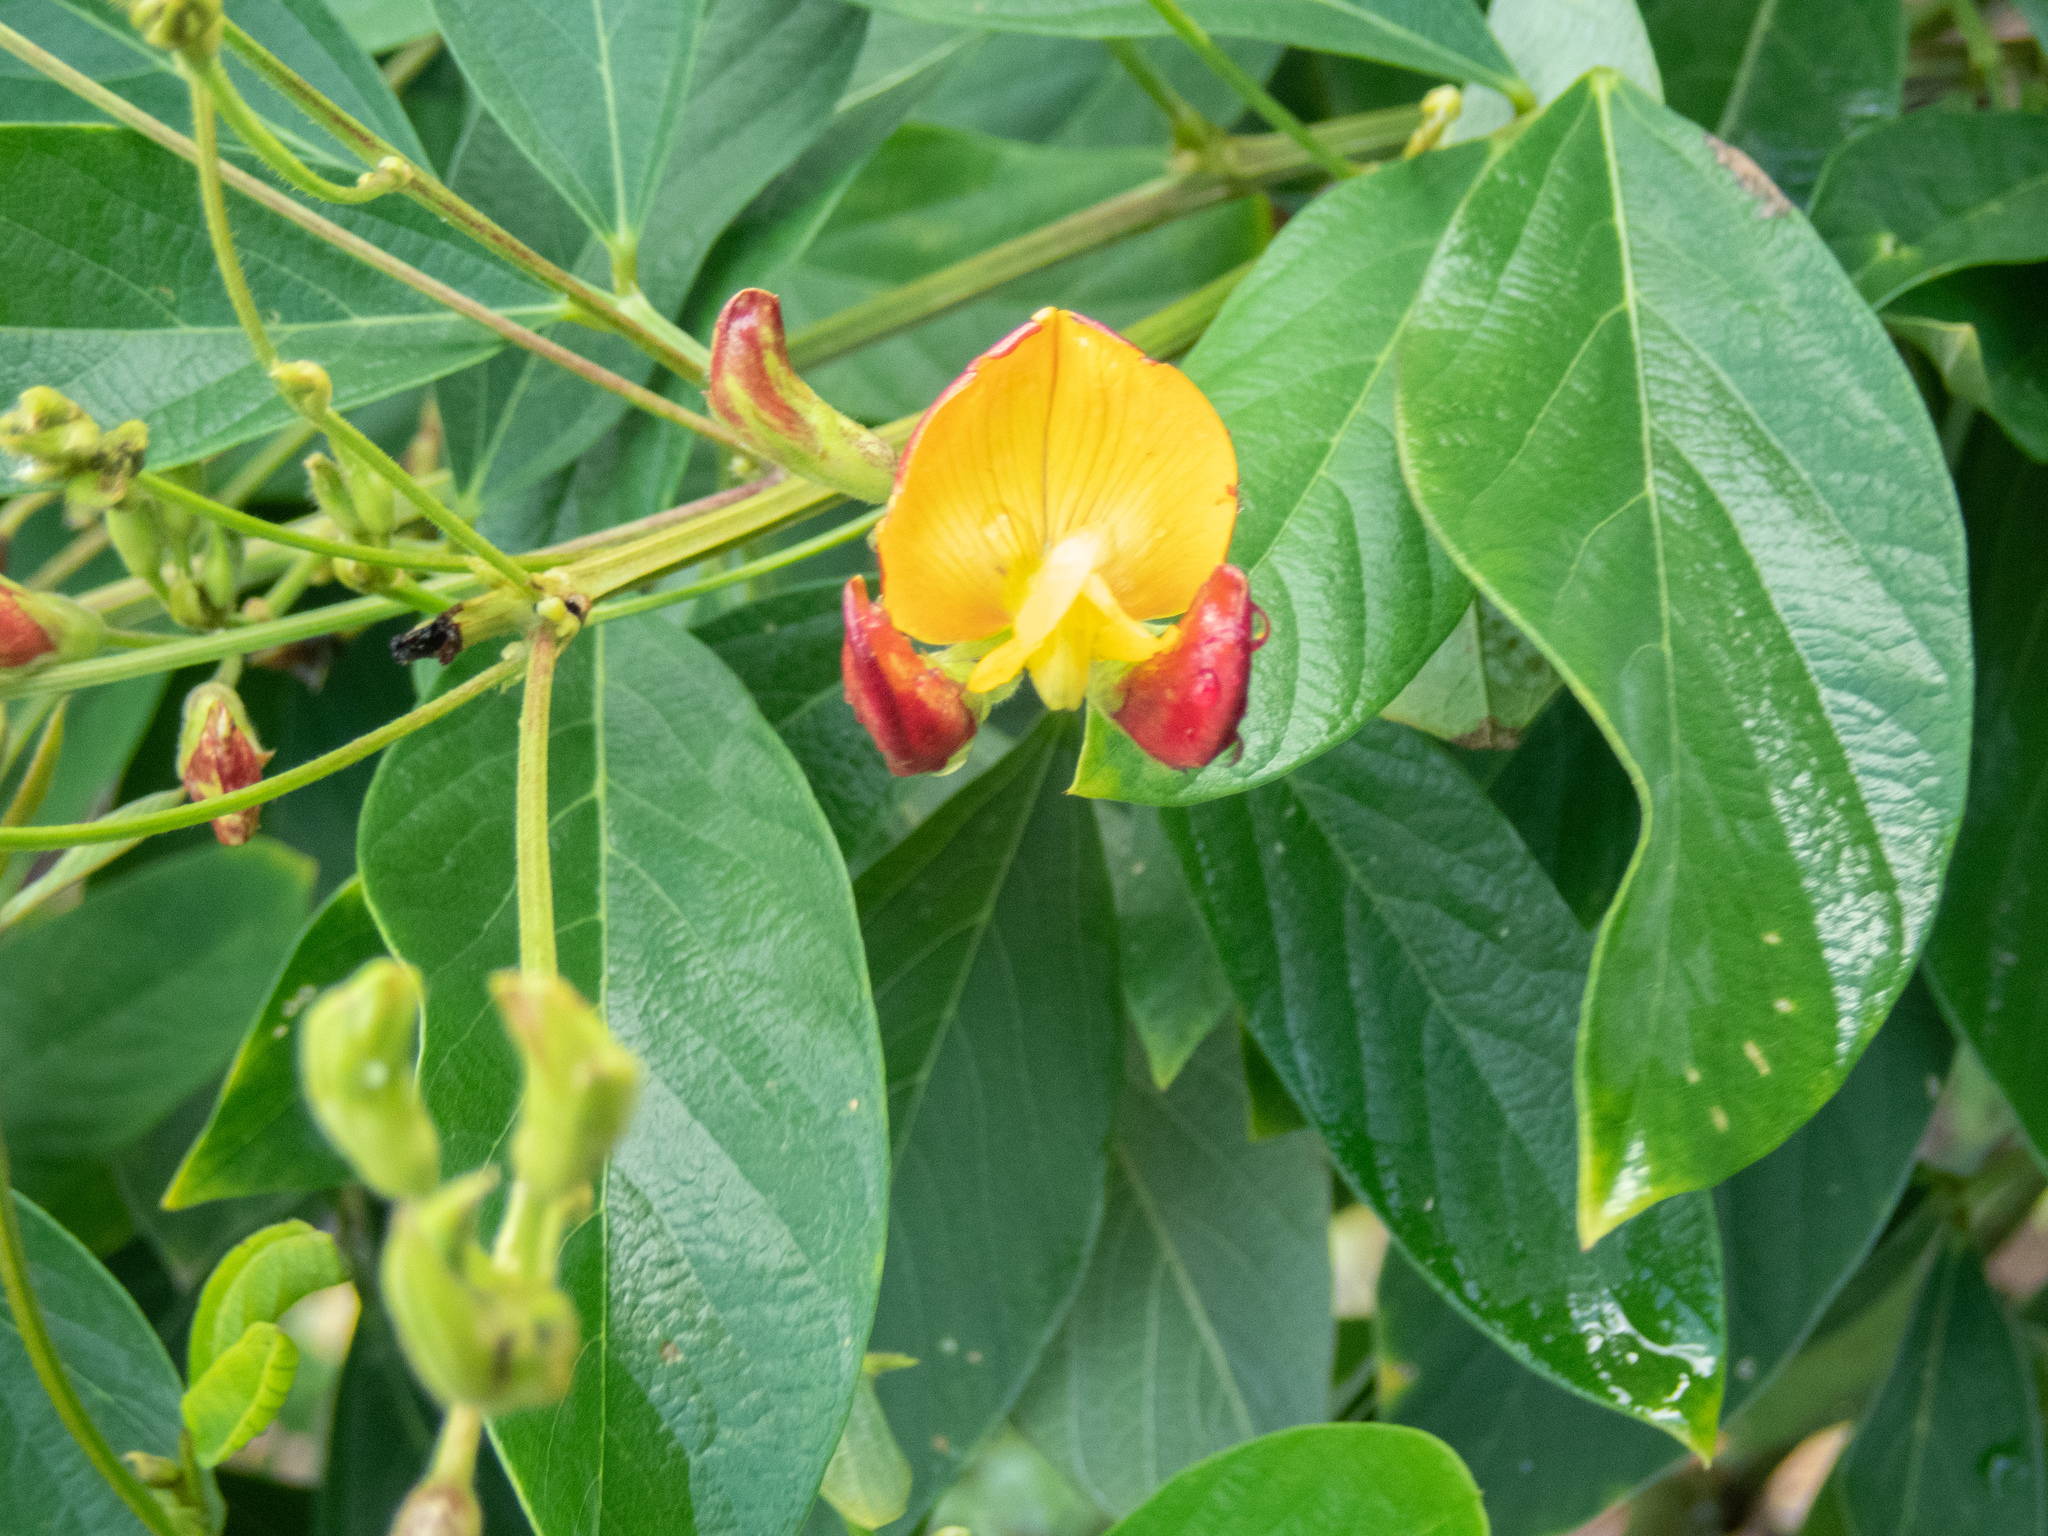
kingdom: Plantae
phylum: Tracheophyta
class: Magnoliopsida
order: Fabales
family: Fabaceae
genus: Cajanus
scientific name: Cajanus cajan
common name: Pigeonpea
